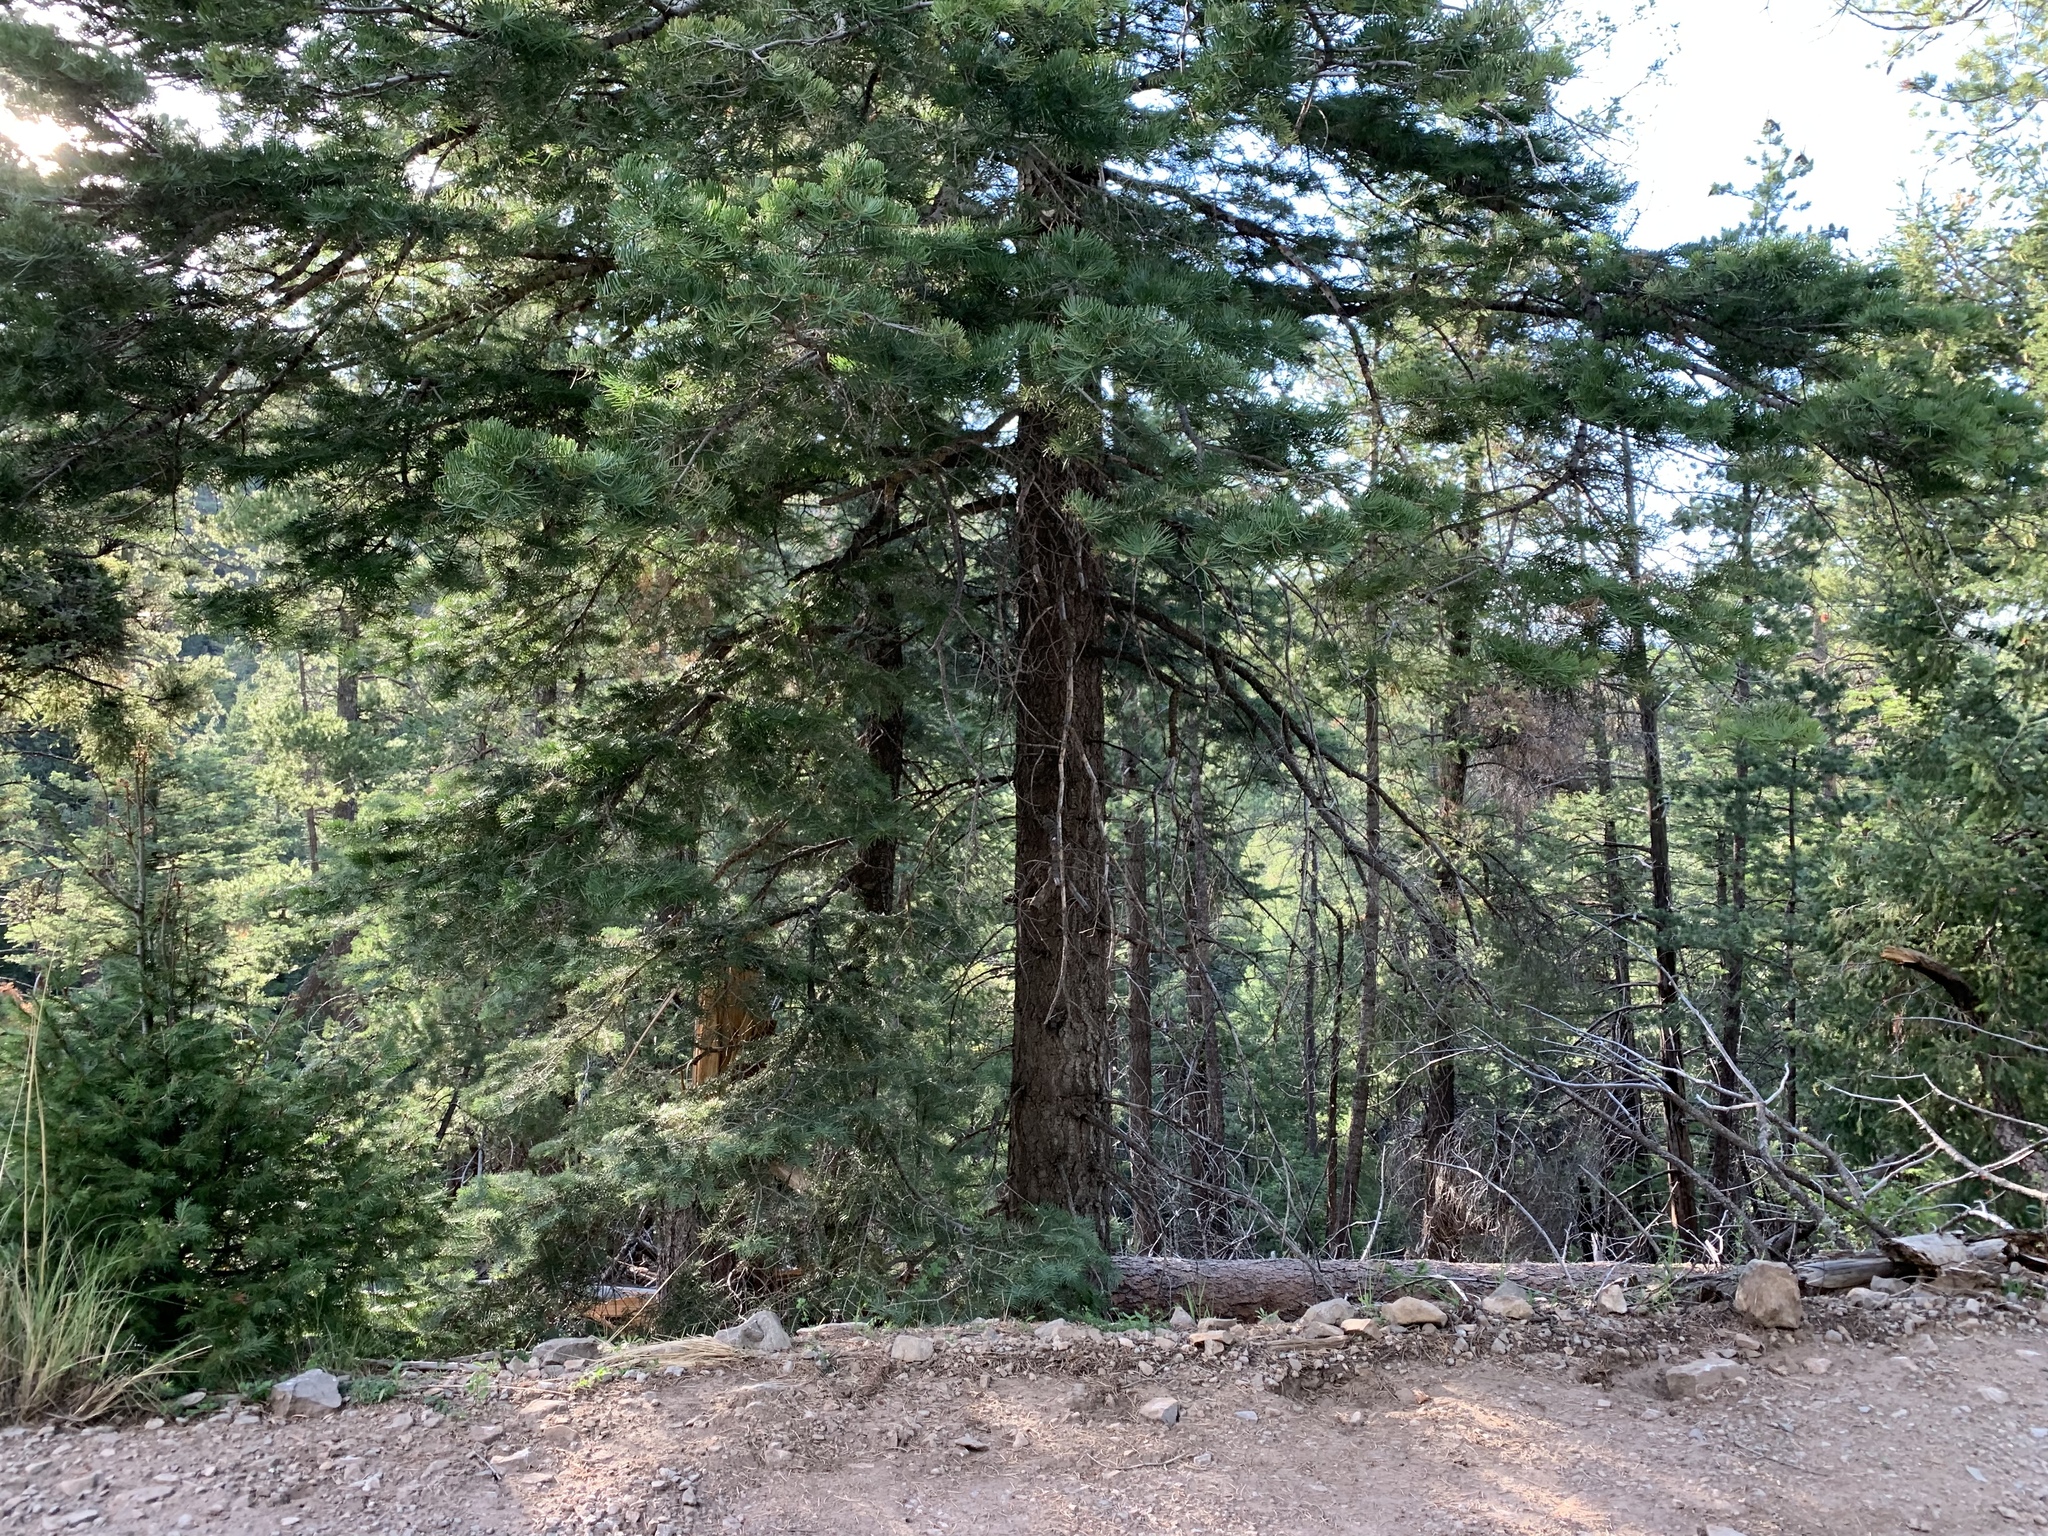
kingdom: Plantae
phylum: Tracheophyta
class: Pinopsida
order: Pinales
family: Pinaceae
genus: Pseudotsuga
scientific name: Pseudotsuga menziesii
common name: Douglas fir
